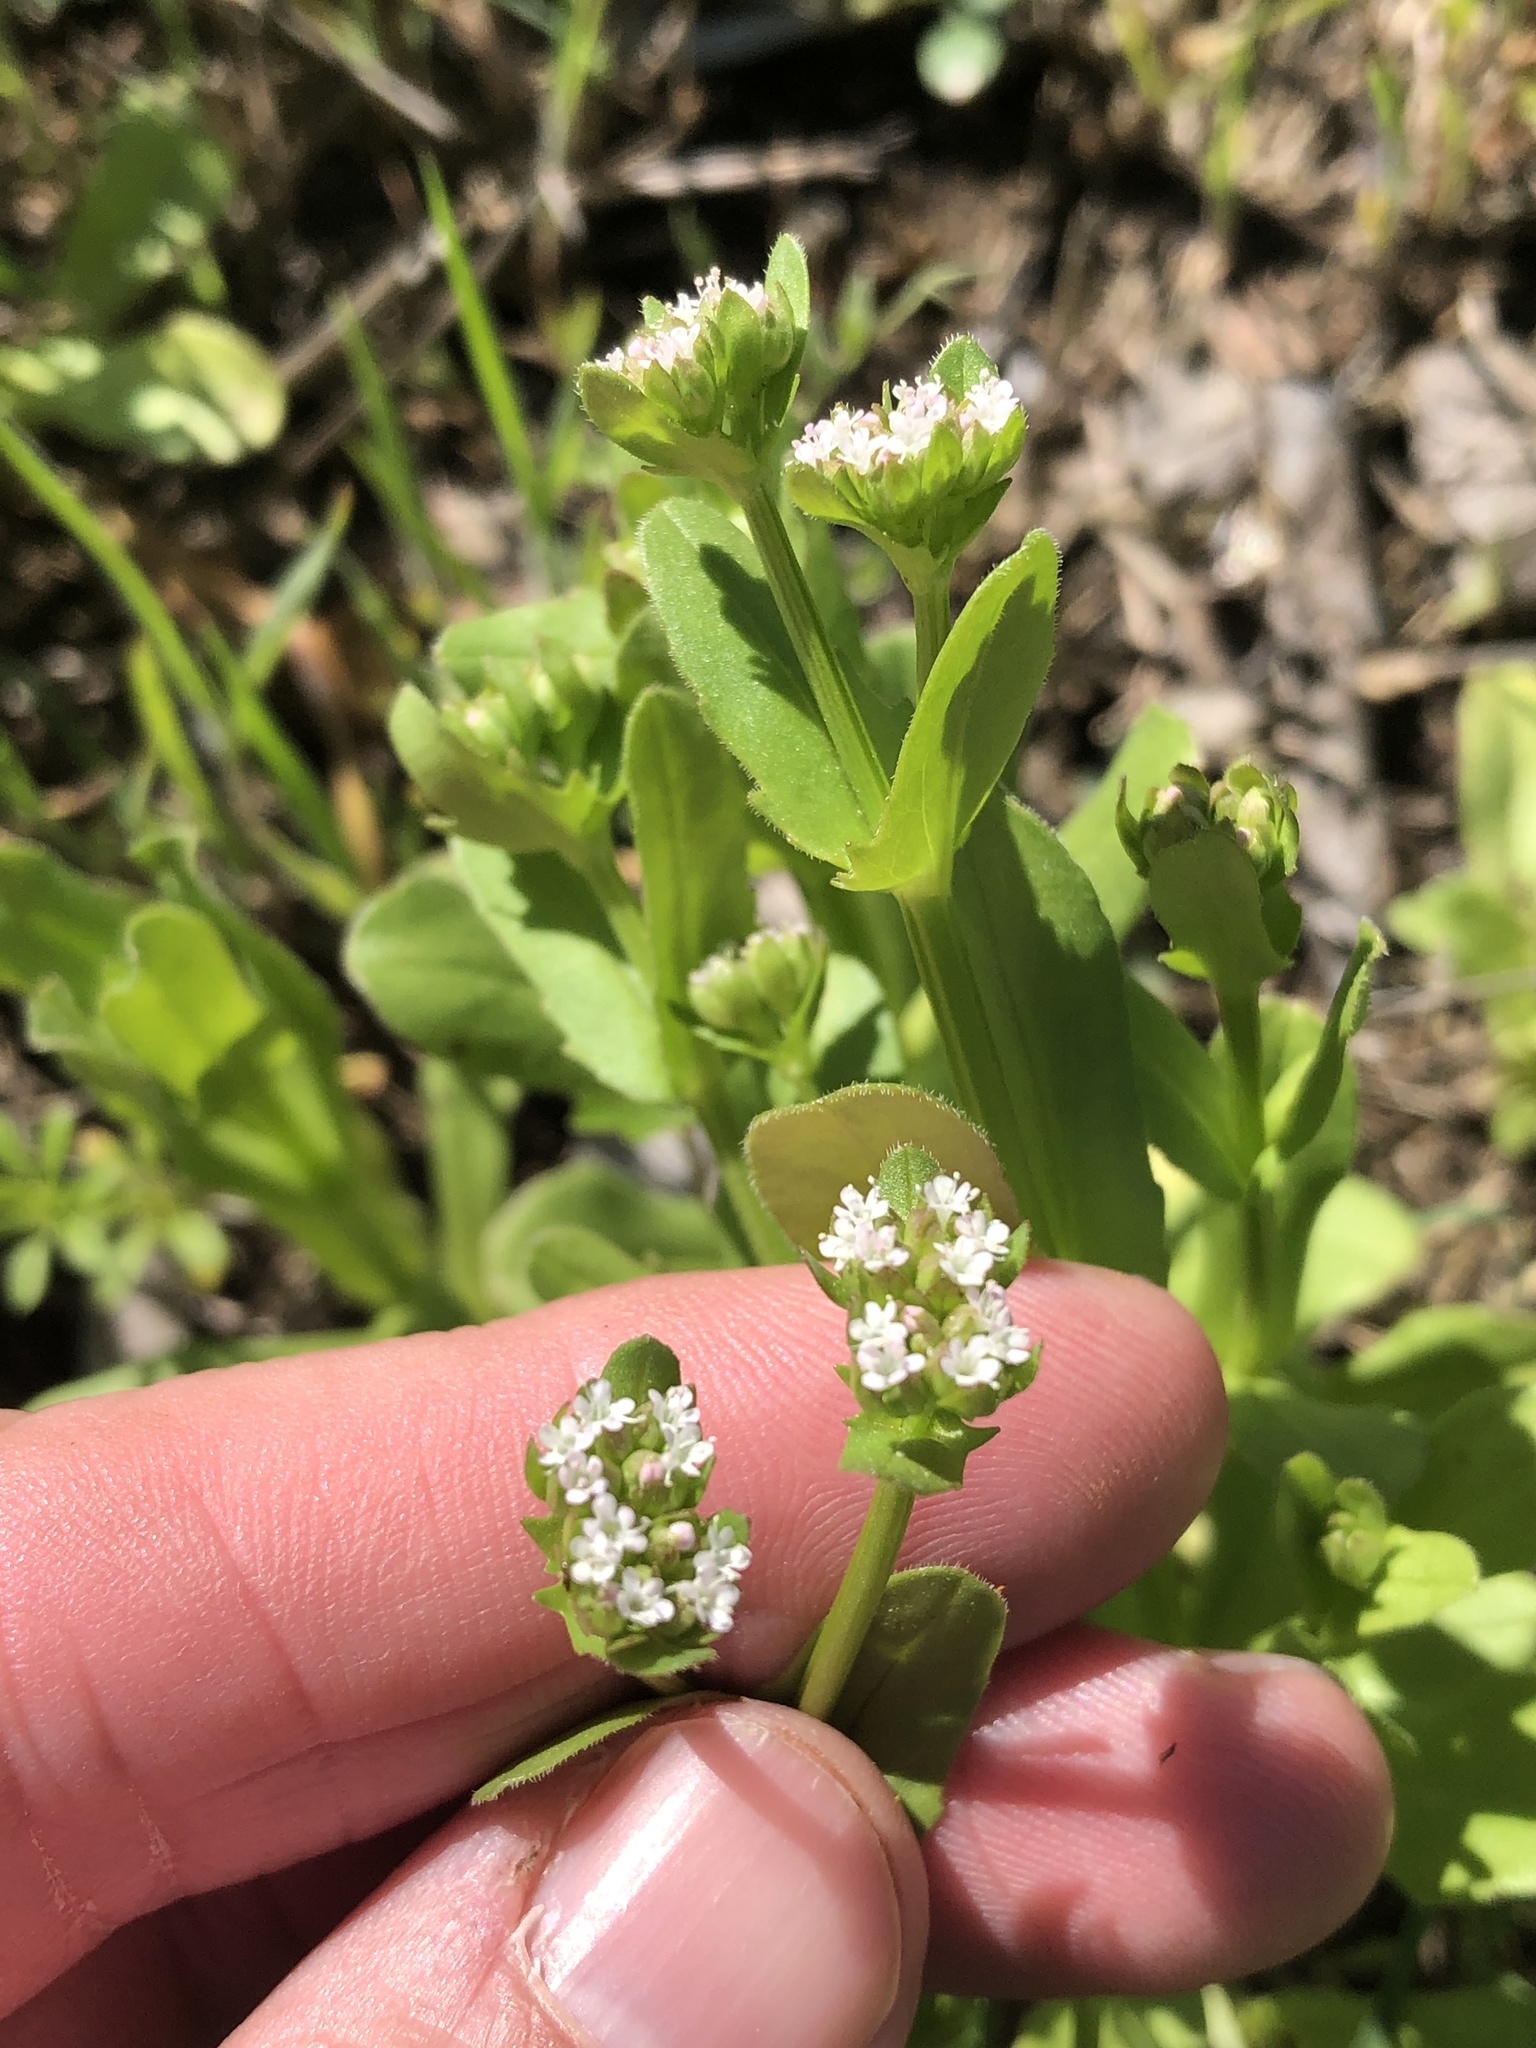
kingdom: Plantae
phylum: Tracheophyta
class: Magnoliopsida
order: Dipsacales
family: Caprifoliaceae
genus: Valerianella
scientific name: Valerianella radiata
